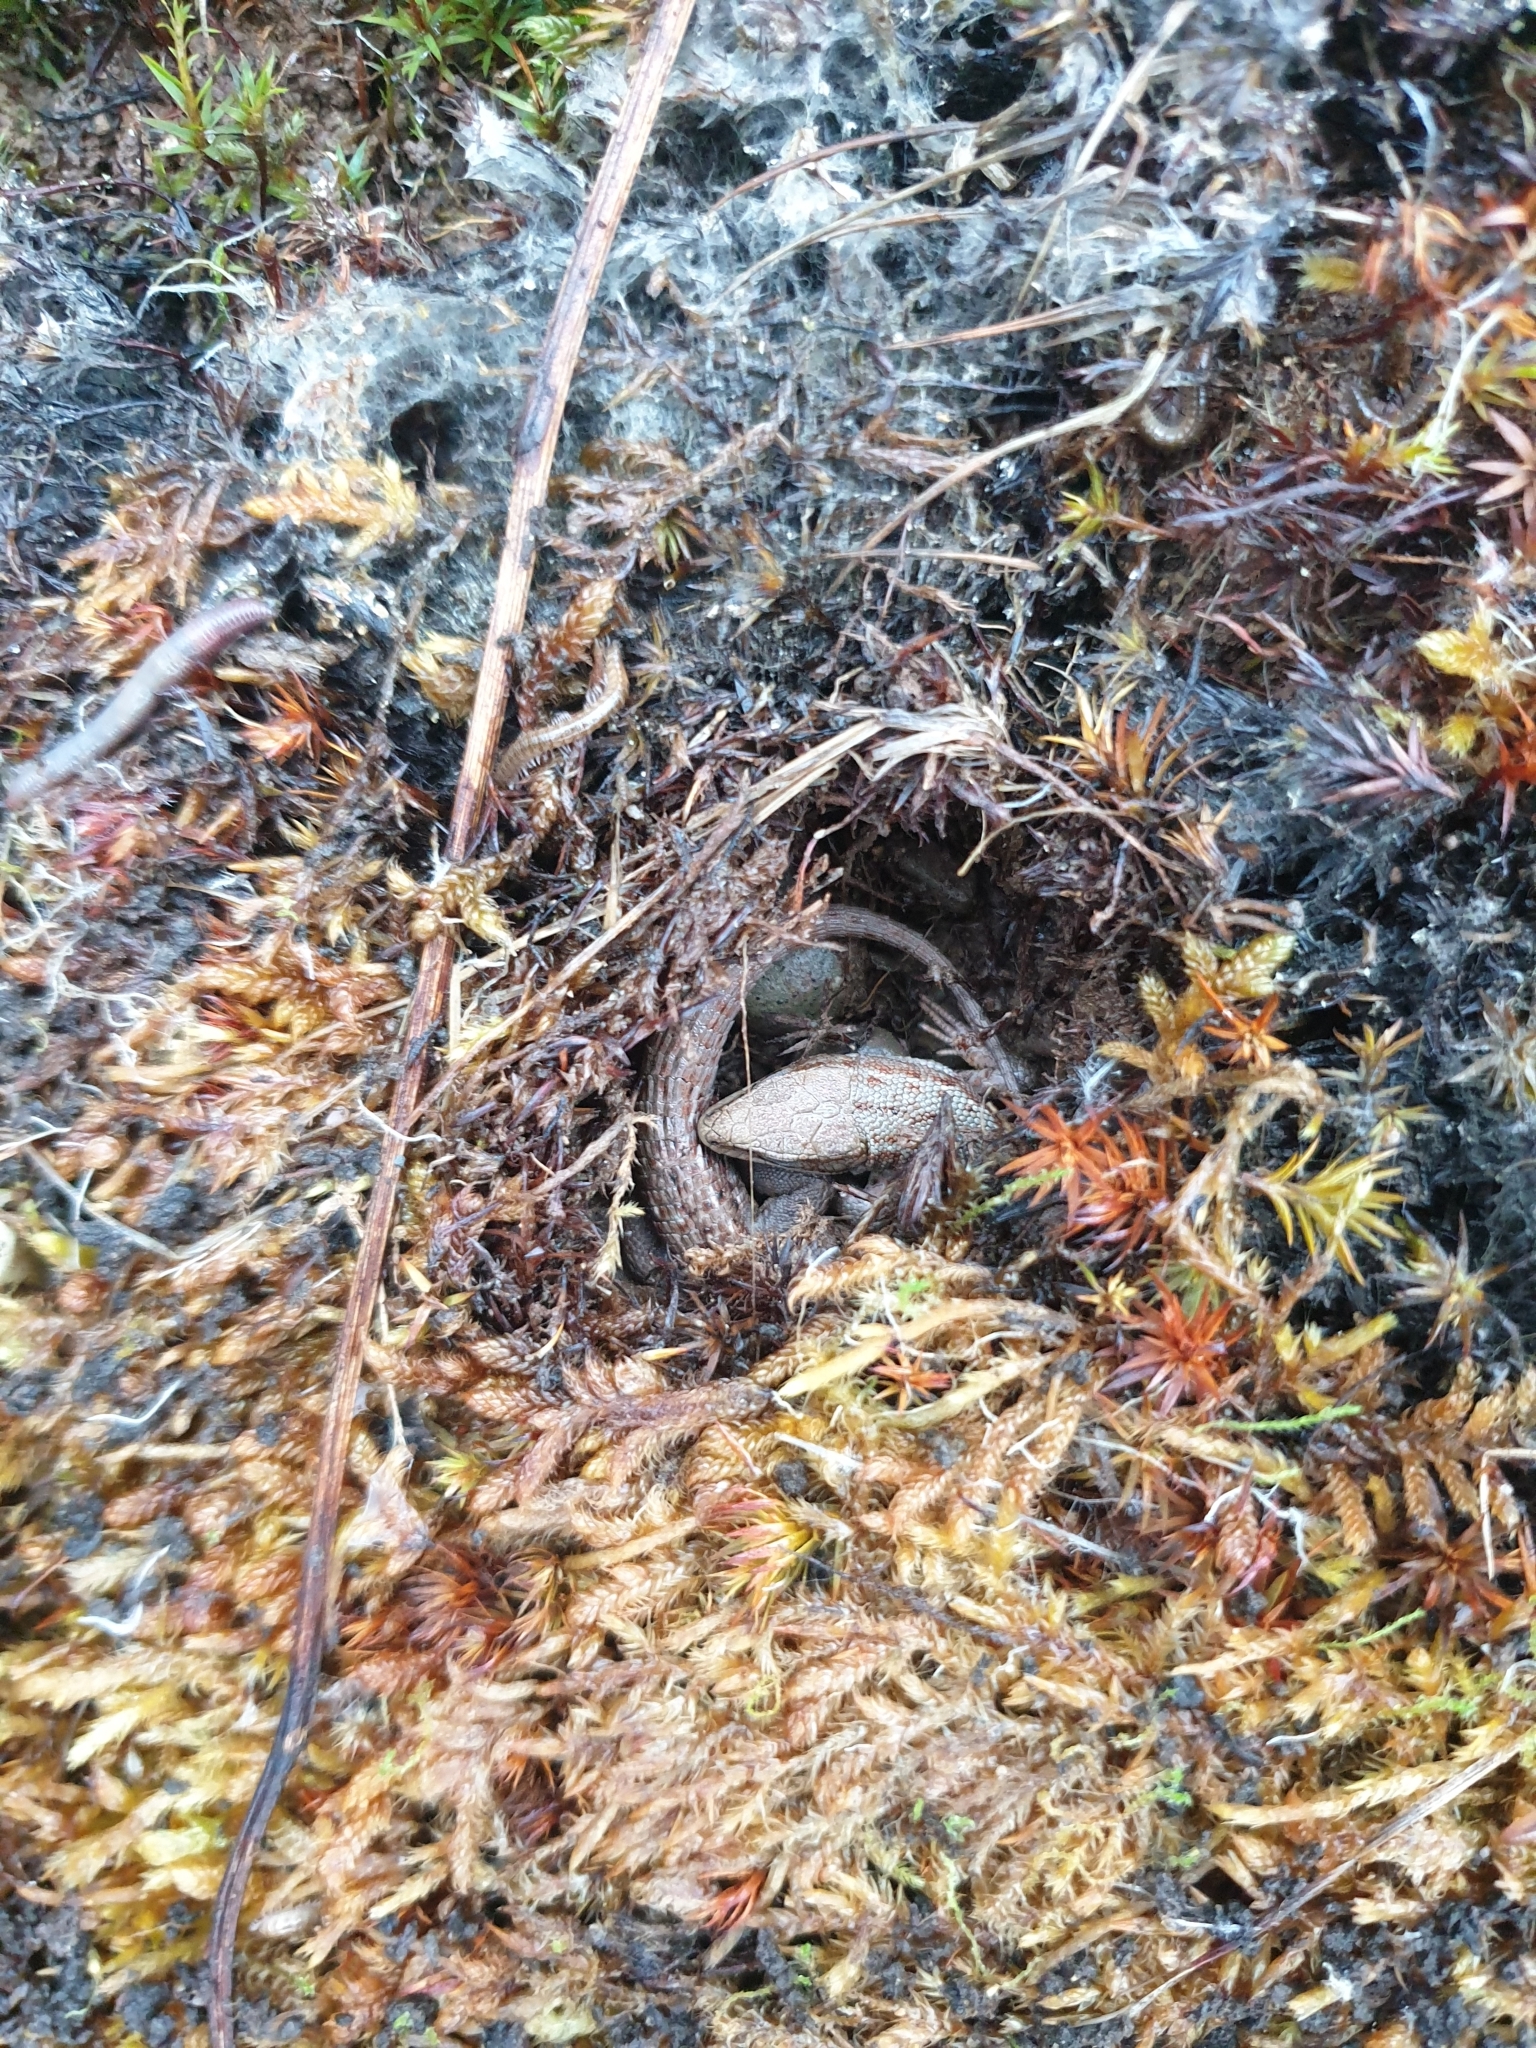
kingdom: Animalia
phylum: Chordata
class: Squamata
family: Lacertidae
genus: Zootoca
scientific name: Zootoca vivipara
